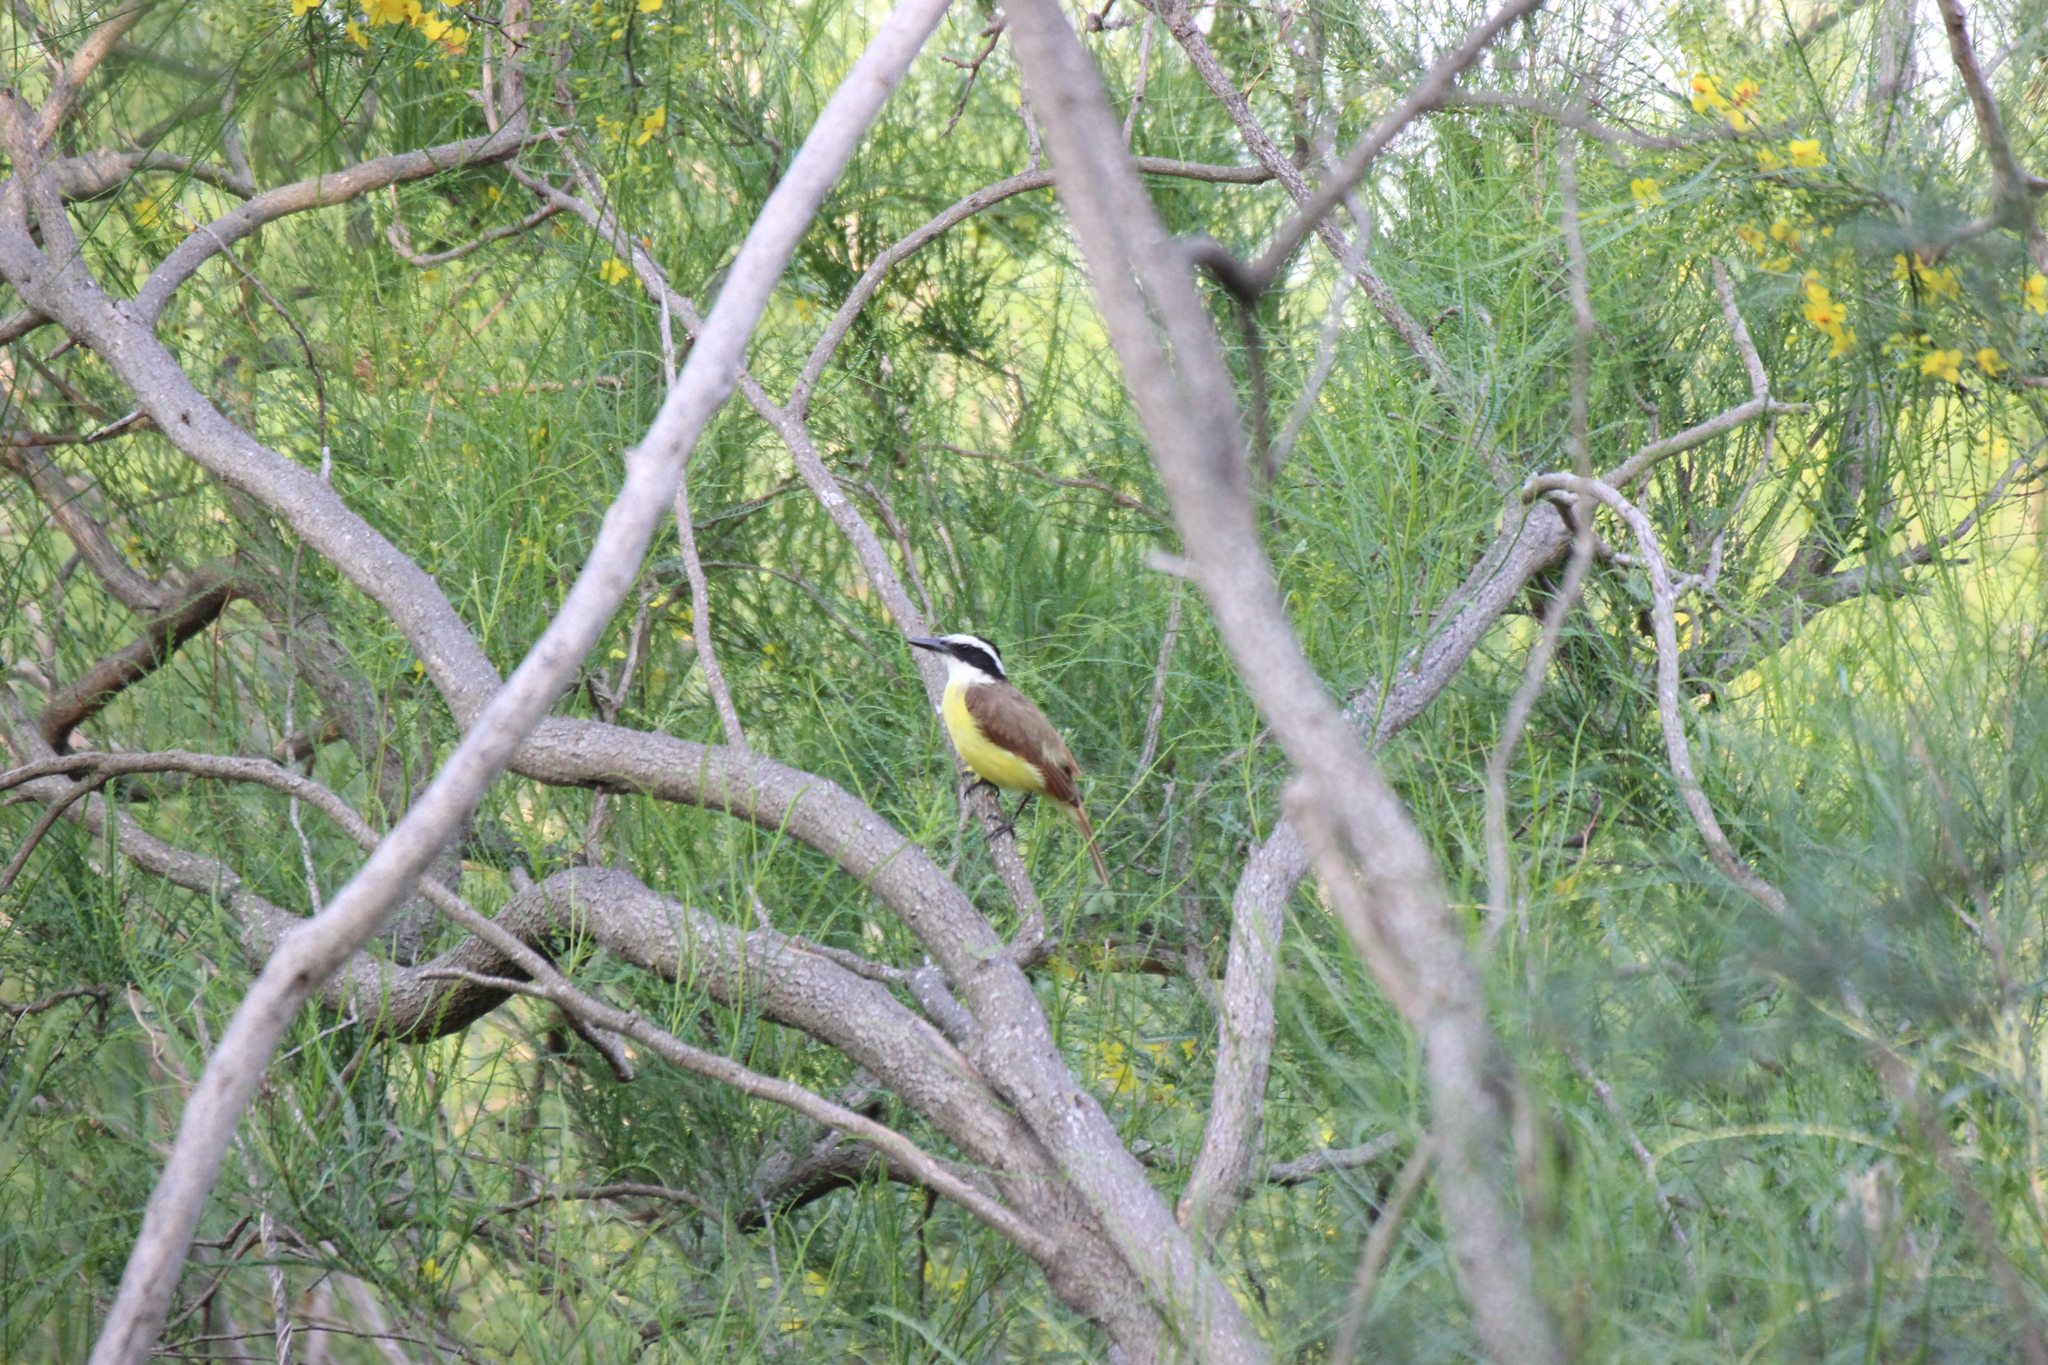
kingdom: Animalia
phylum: Chordata
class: Aves
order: Passeriformes
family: Tyrannidae
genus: Pitangus
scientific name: Pitangus sulphuratus
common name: Great kiskadee
